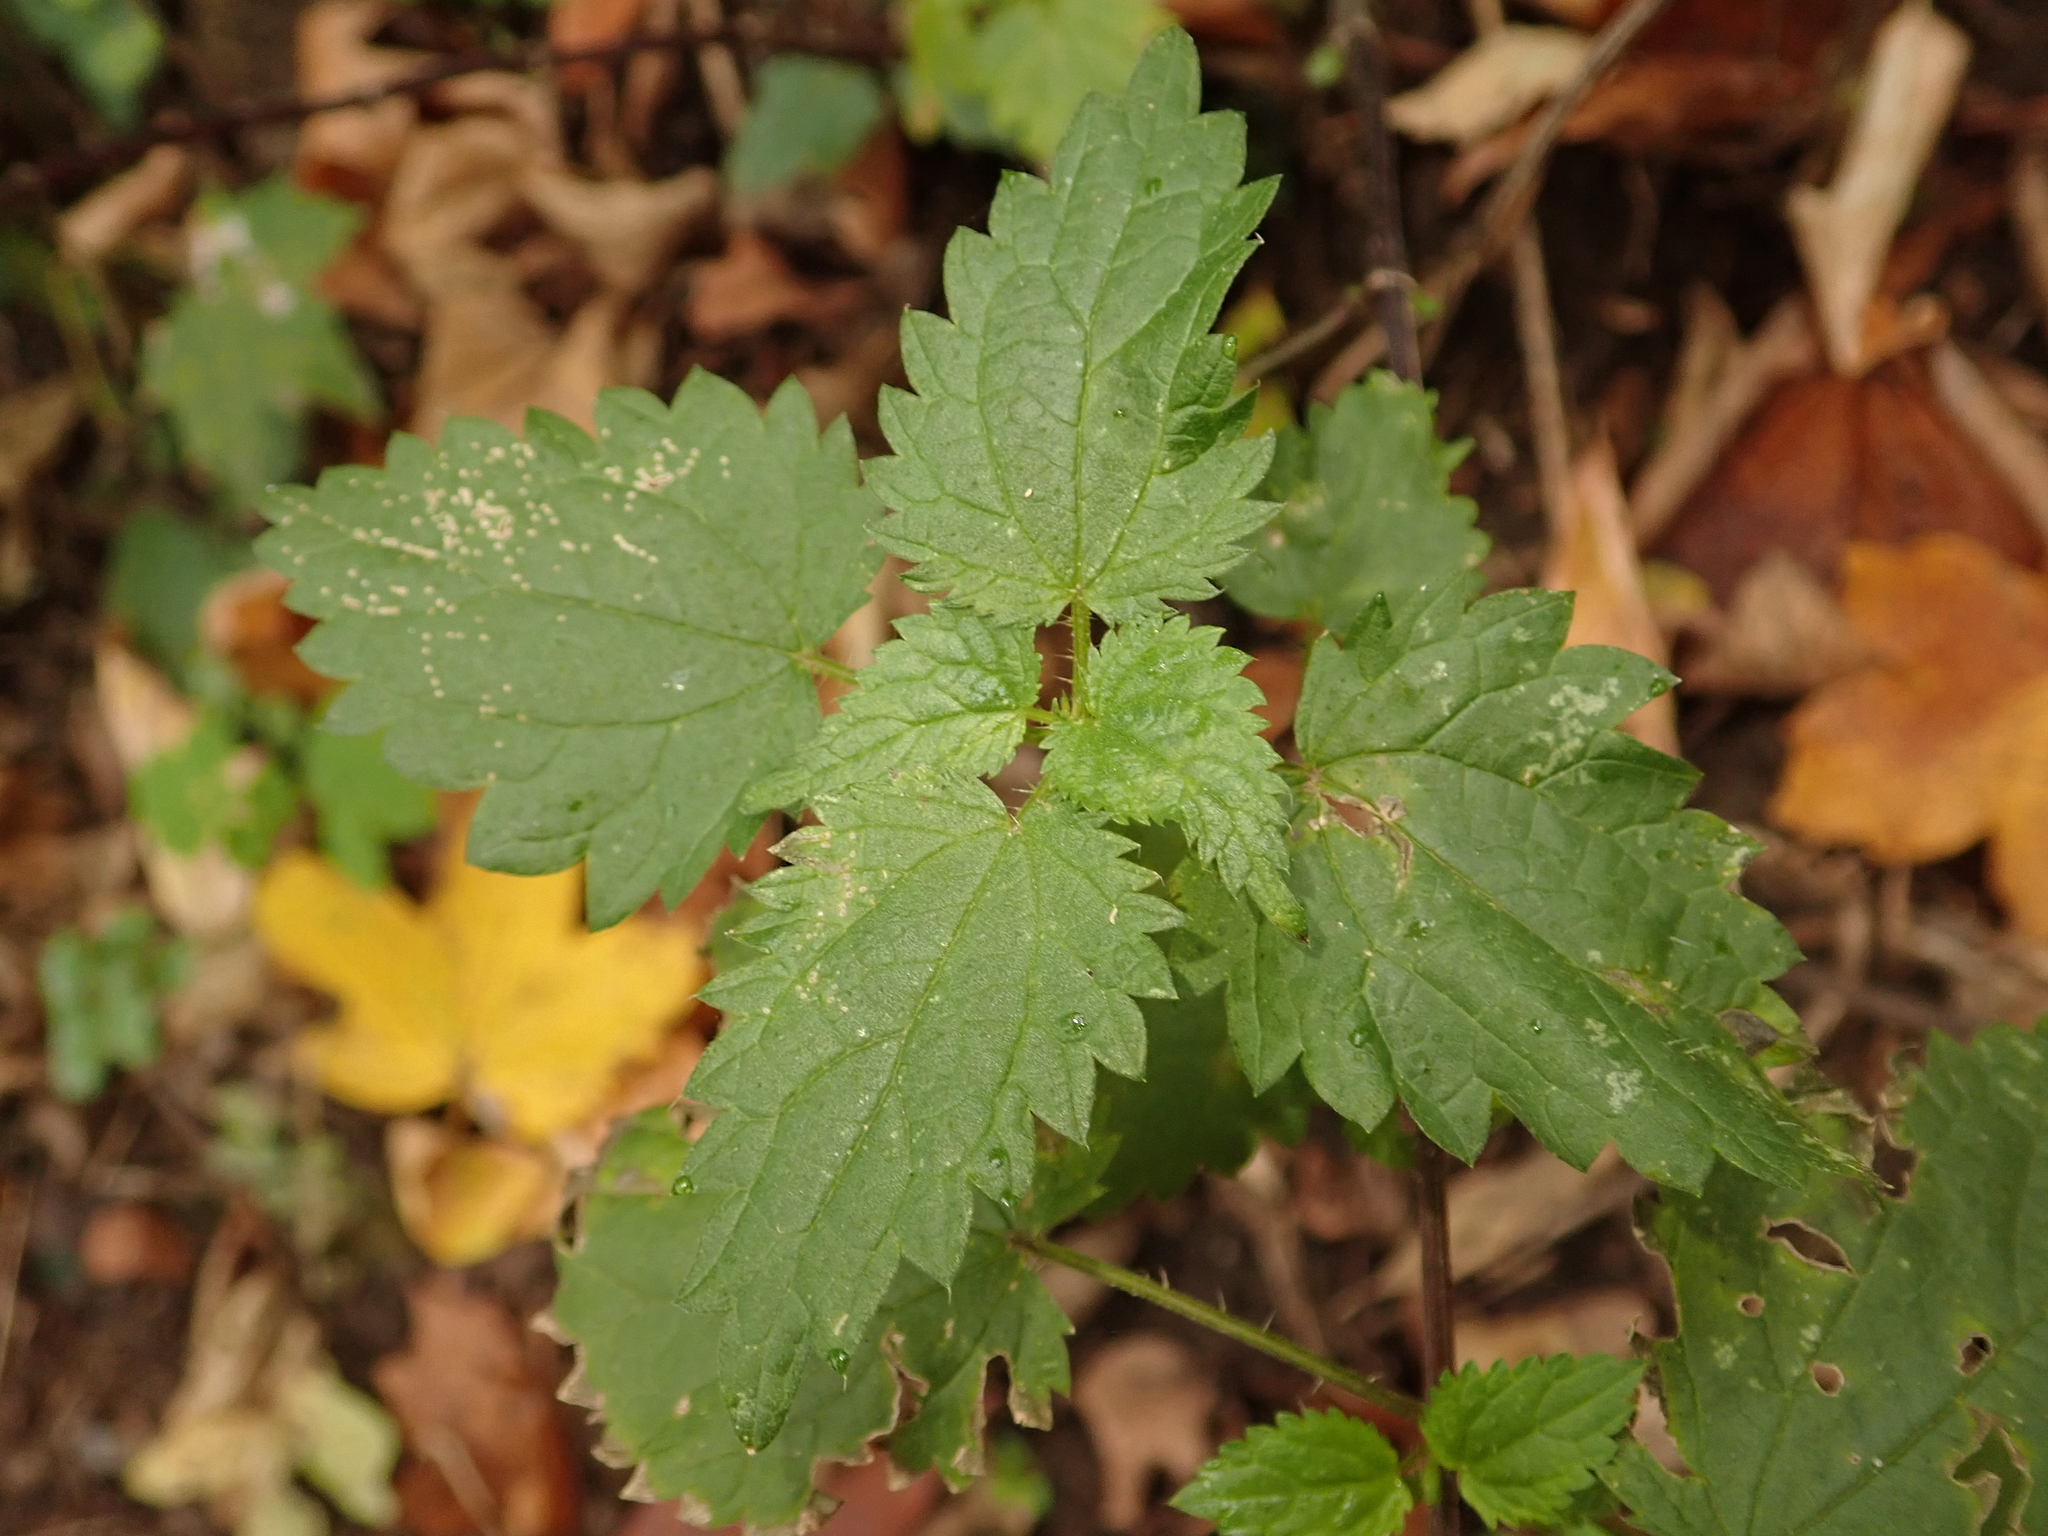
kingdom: Plantae
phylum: Tracheophyta
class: Magnoliopsida
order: Rosales
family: Urticaceae
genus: Urtica
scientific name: Urtica dioica
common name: Common nettle
